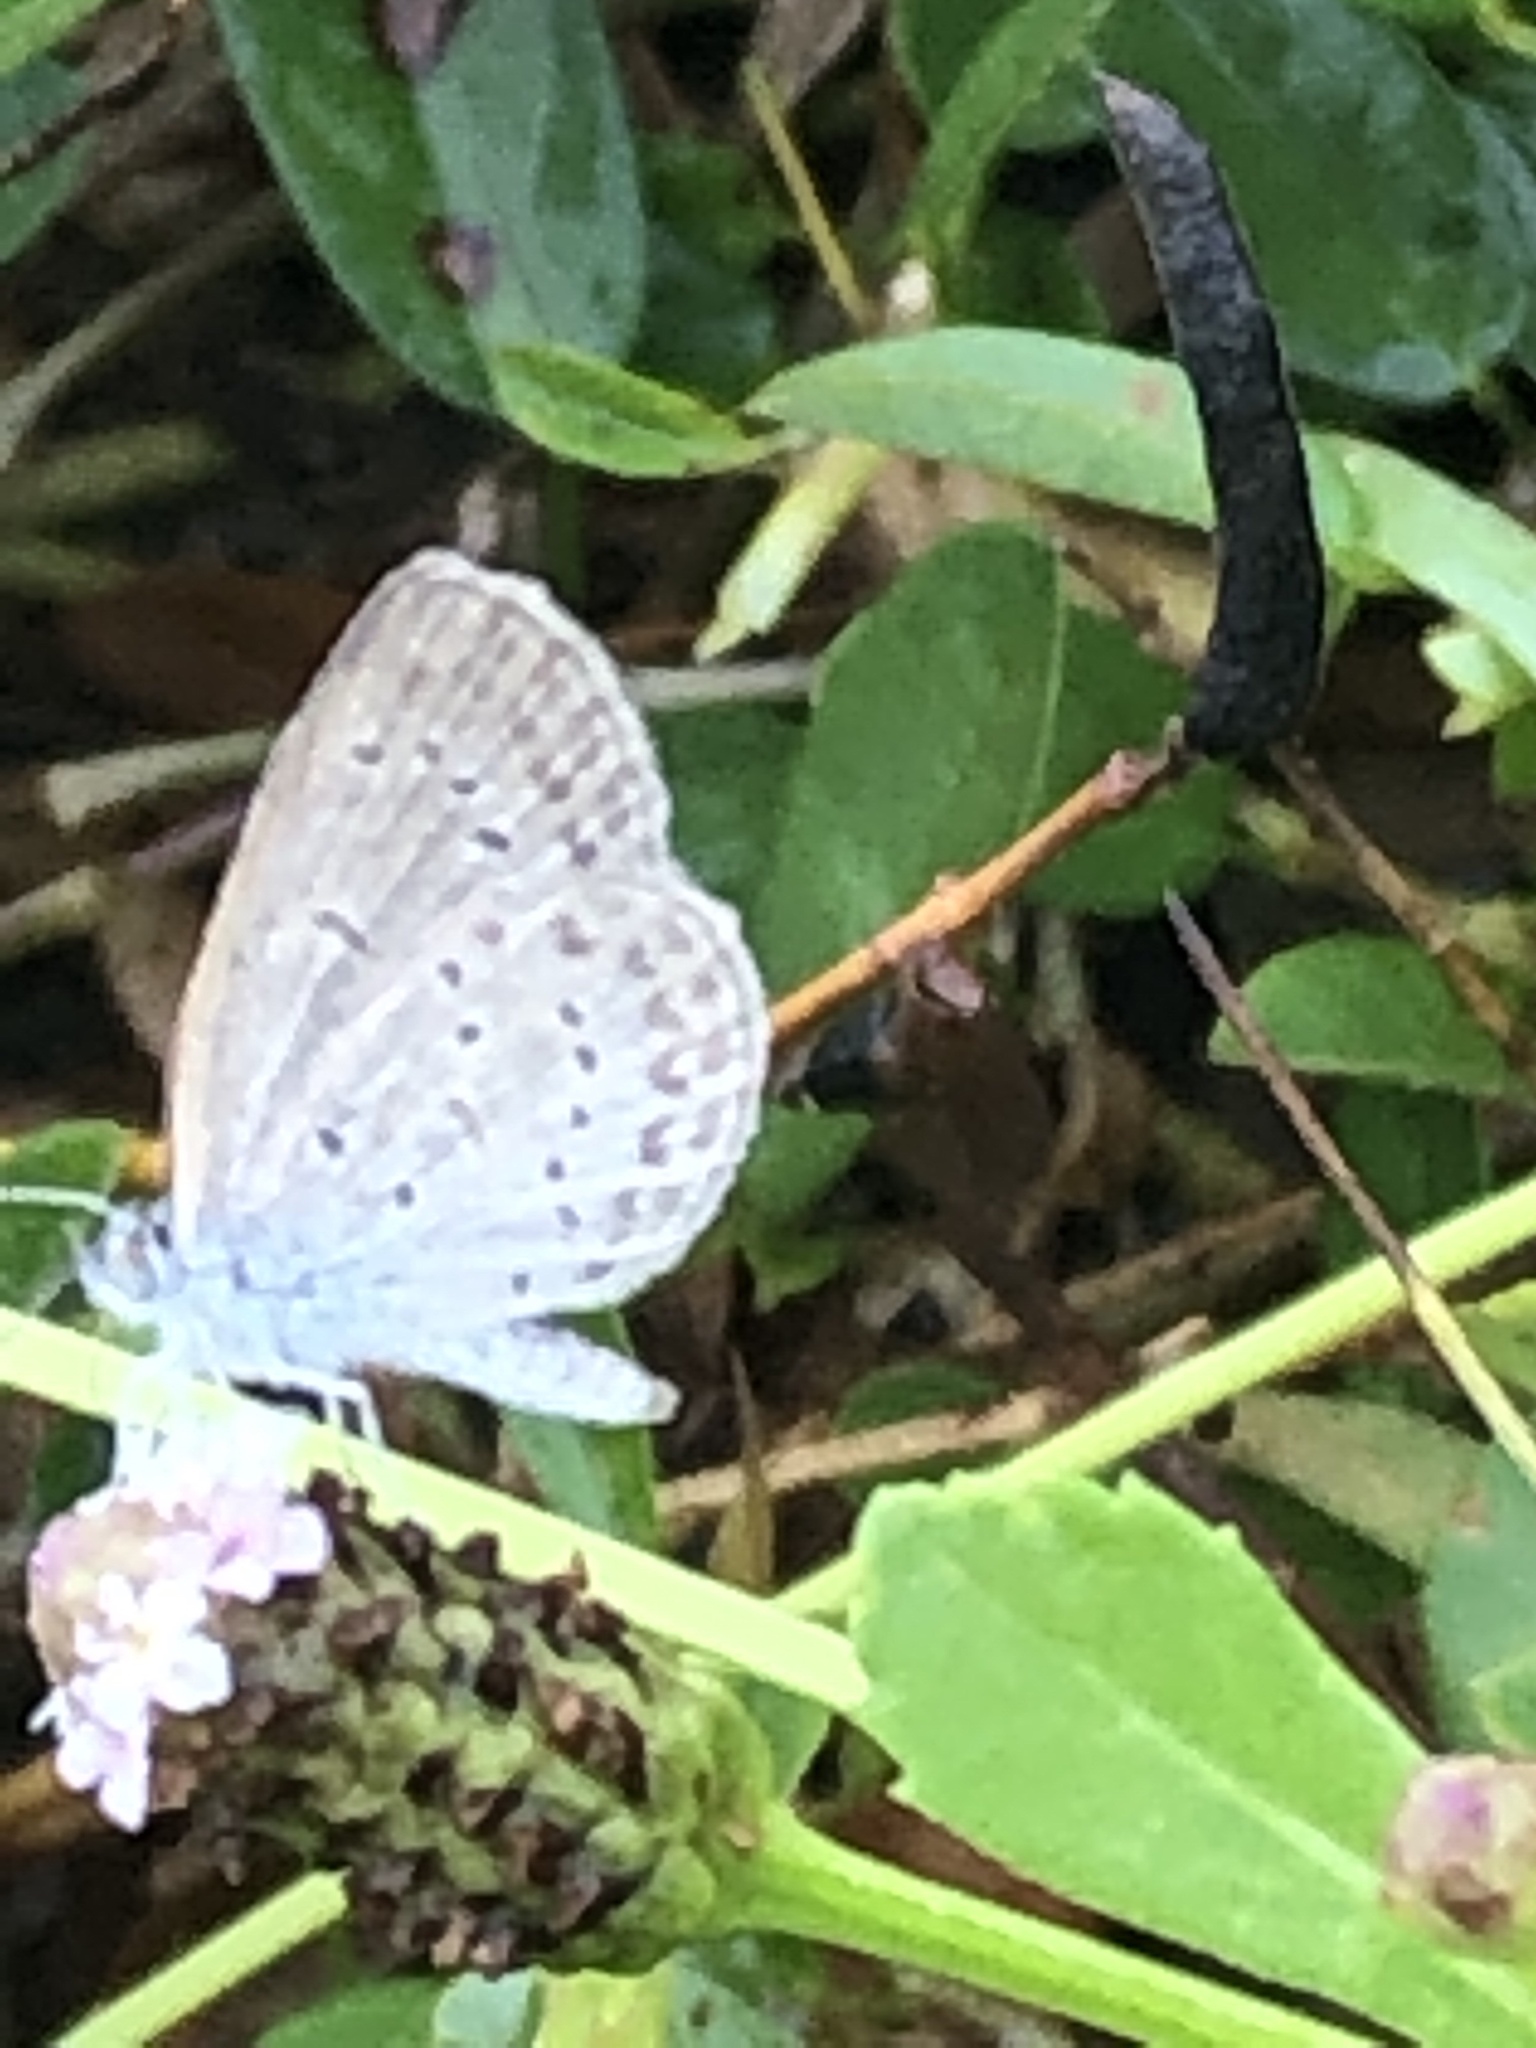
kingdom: Animalia
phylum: Arthropoda
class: Insecta
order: Lepidoptera
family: Lycaenidae
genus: Zizina
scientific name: Zizina otis
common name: Lesser grass blue
